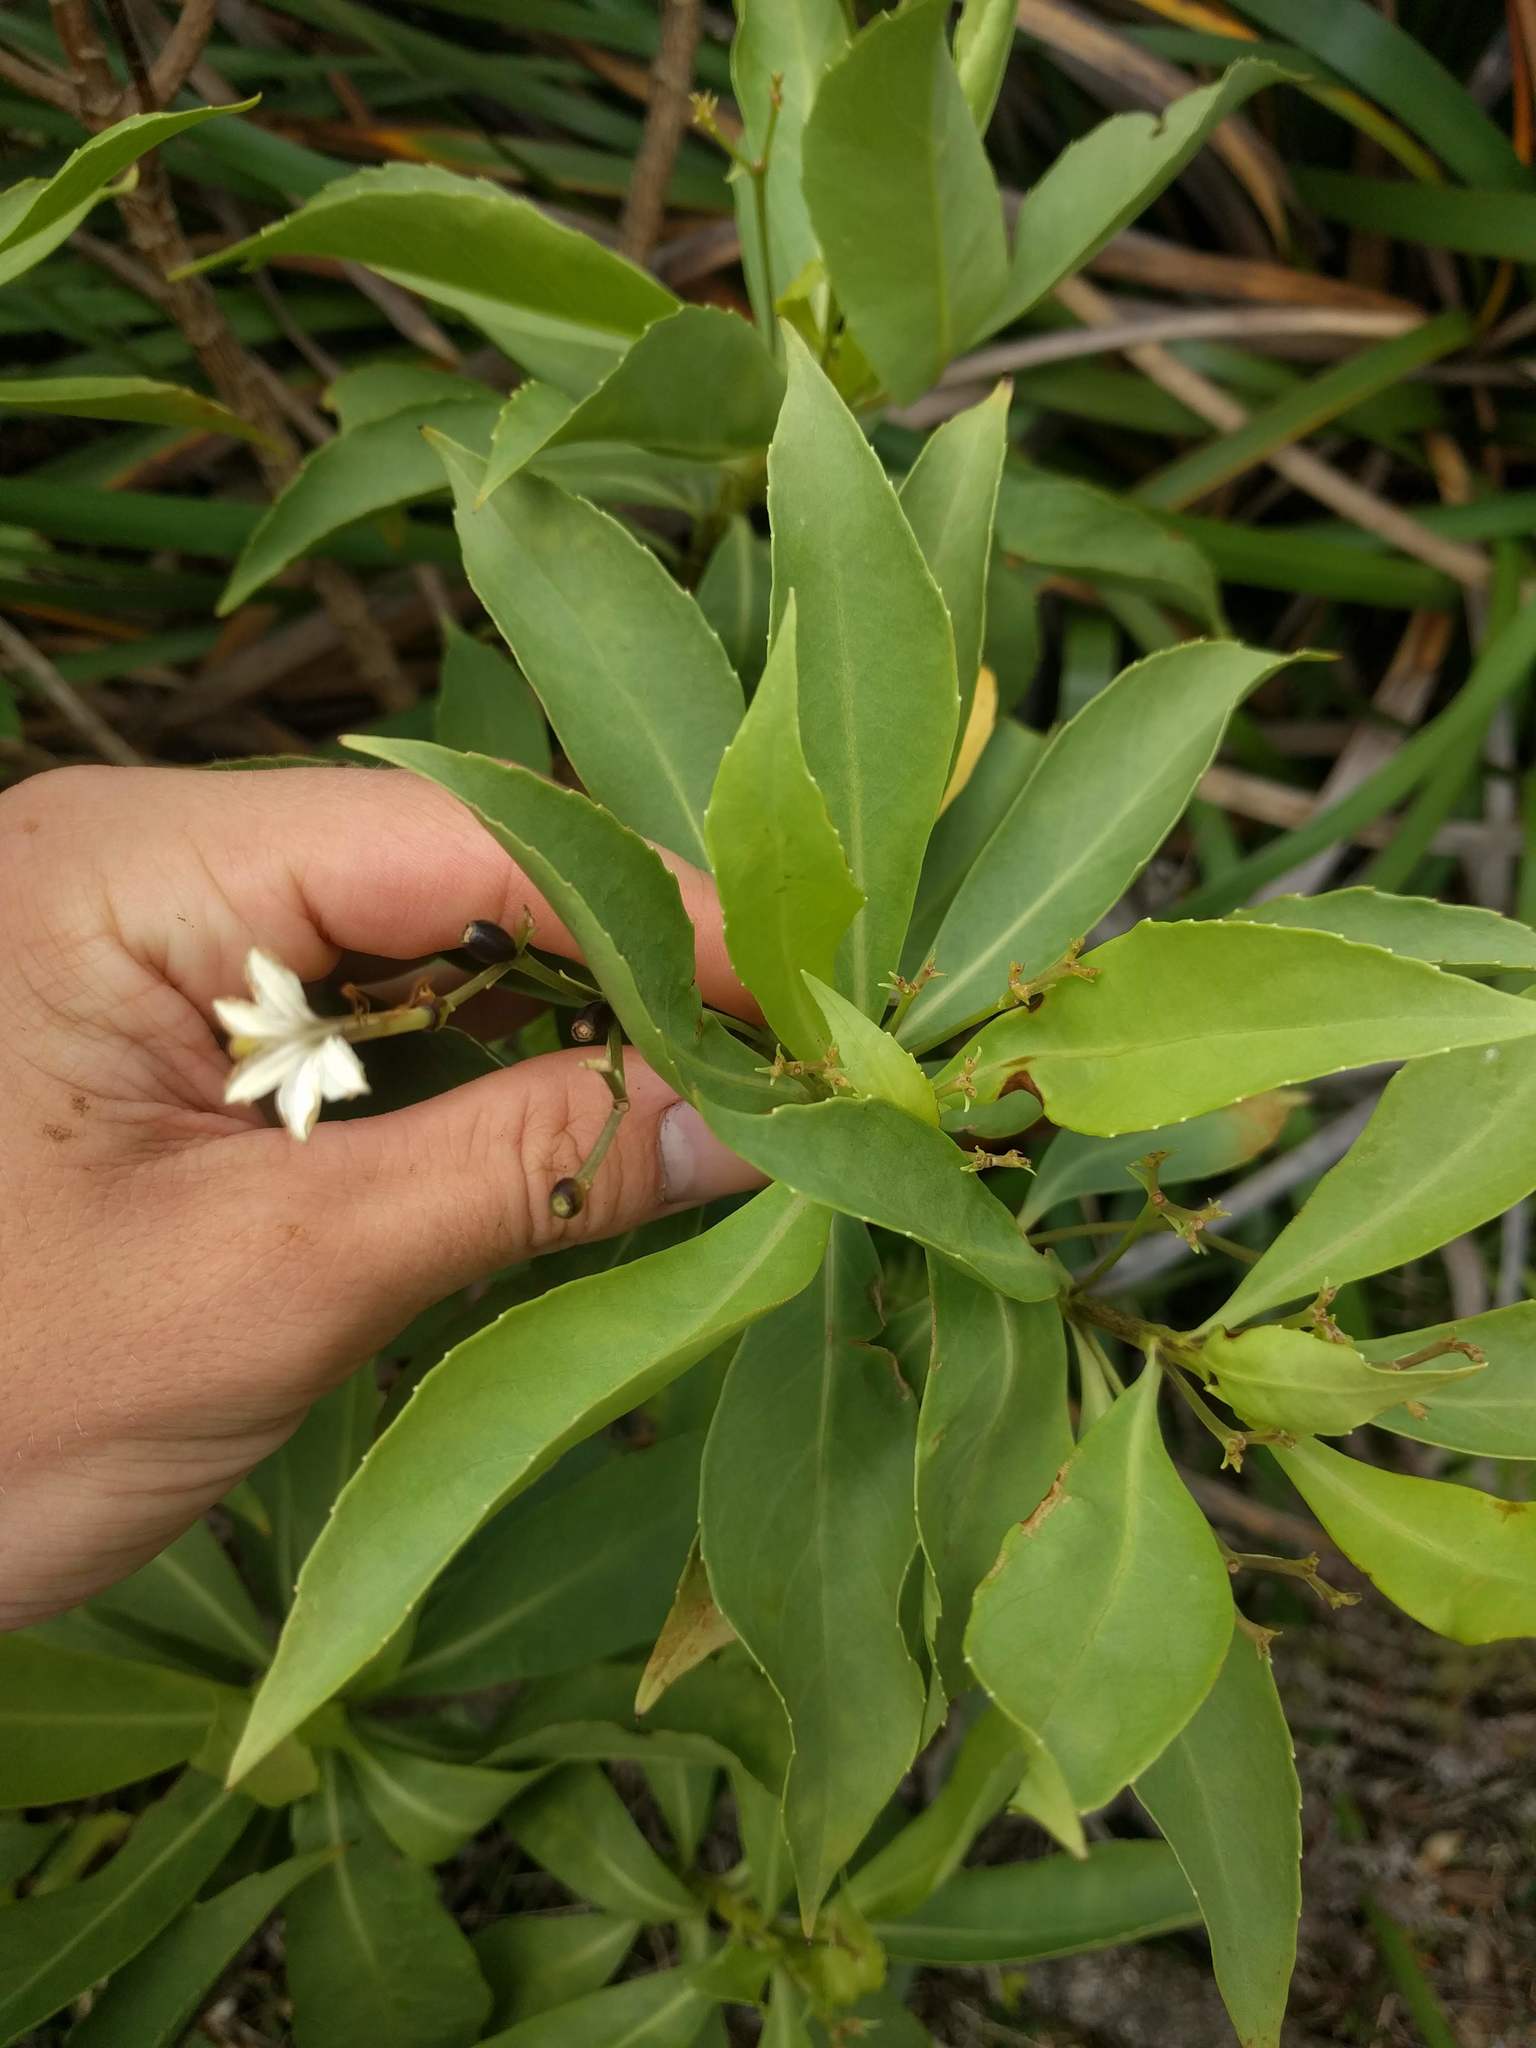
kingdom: Plantae
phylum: Tracheophyta
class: Magnoliopsida
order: Asterales
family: Goodeniaceae
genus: Scaevola
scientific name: Scaevola gaudichaudiana
